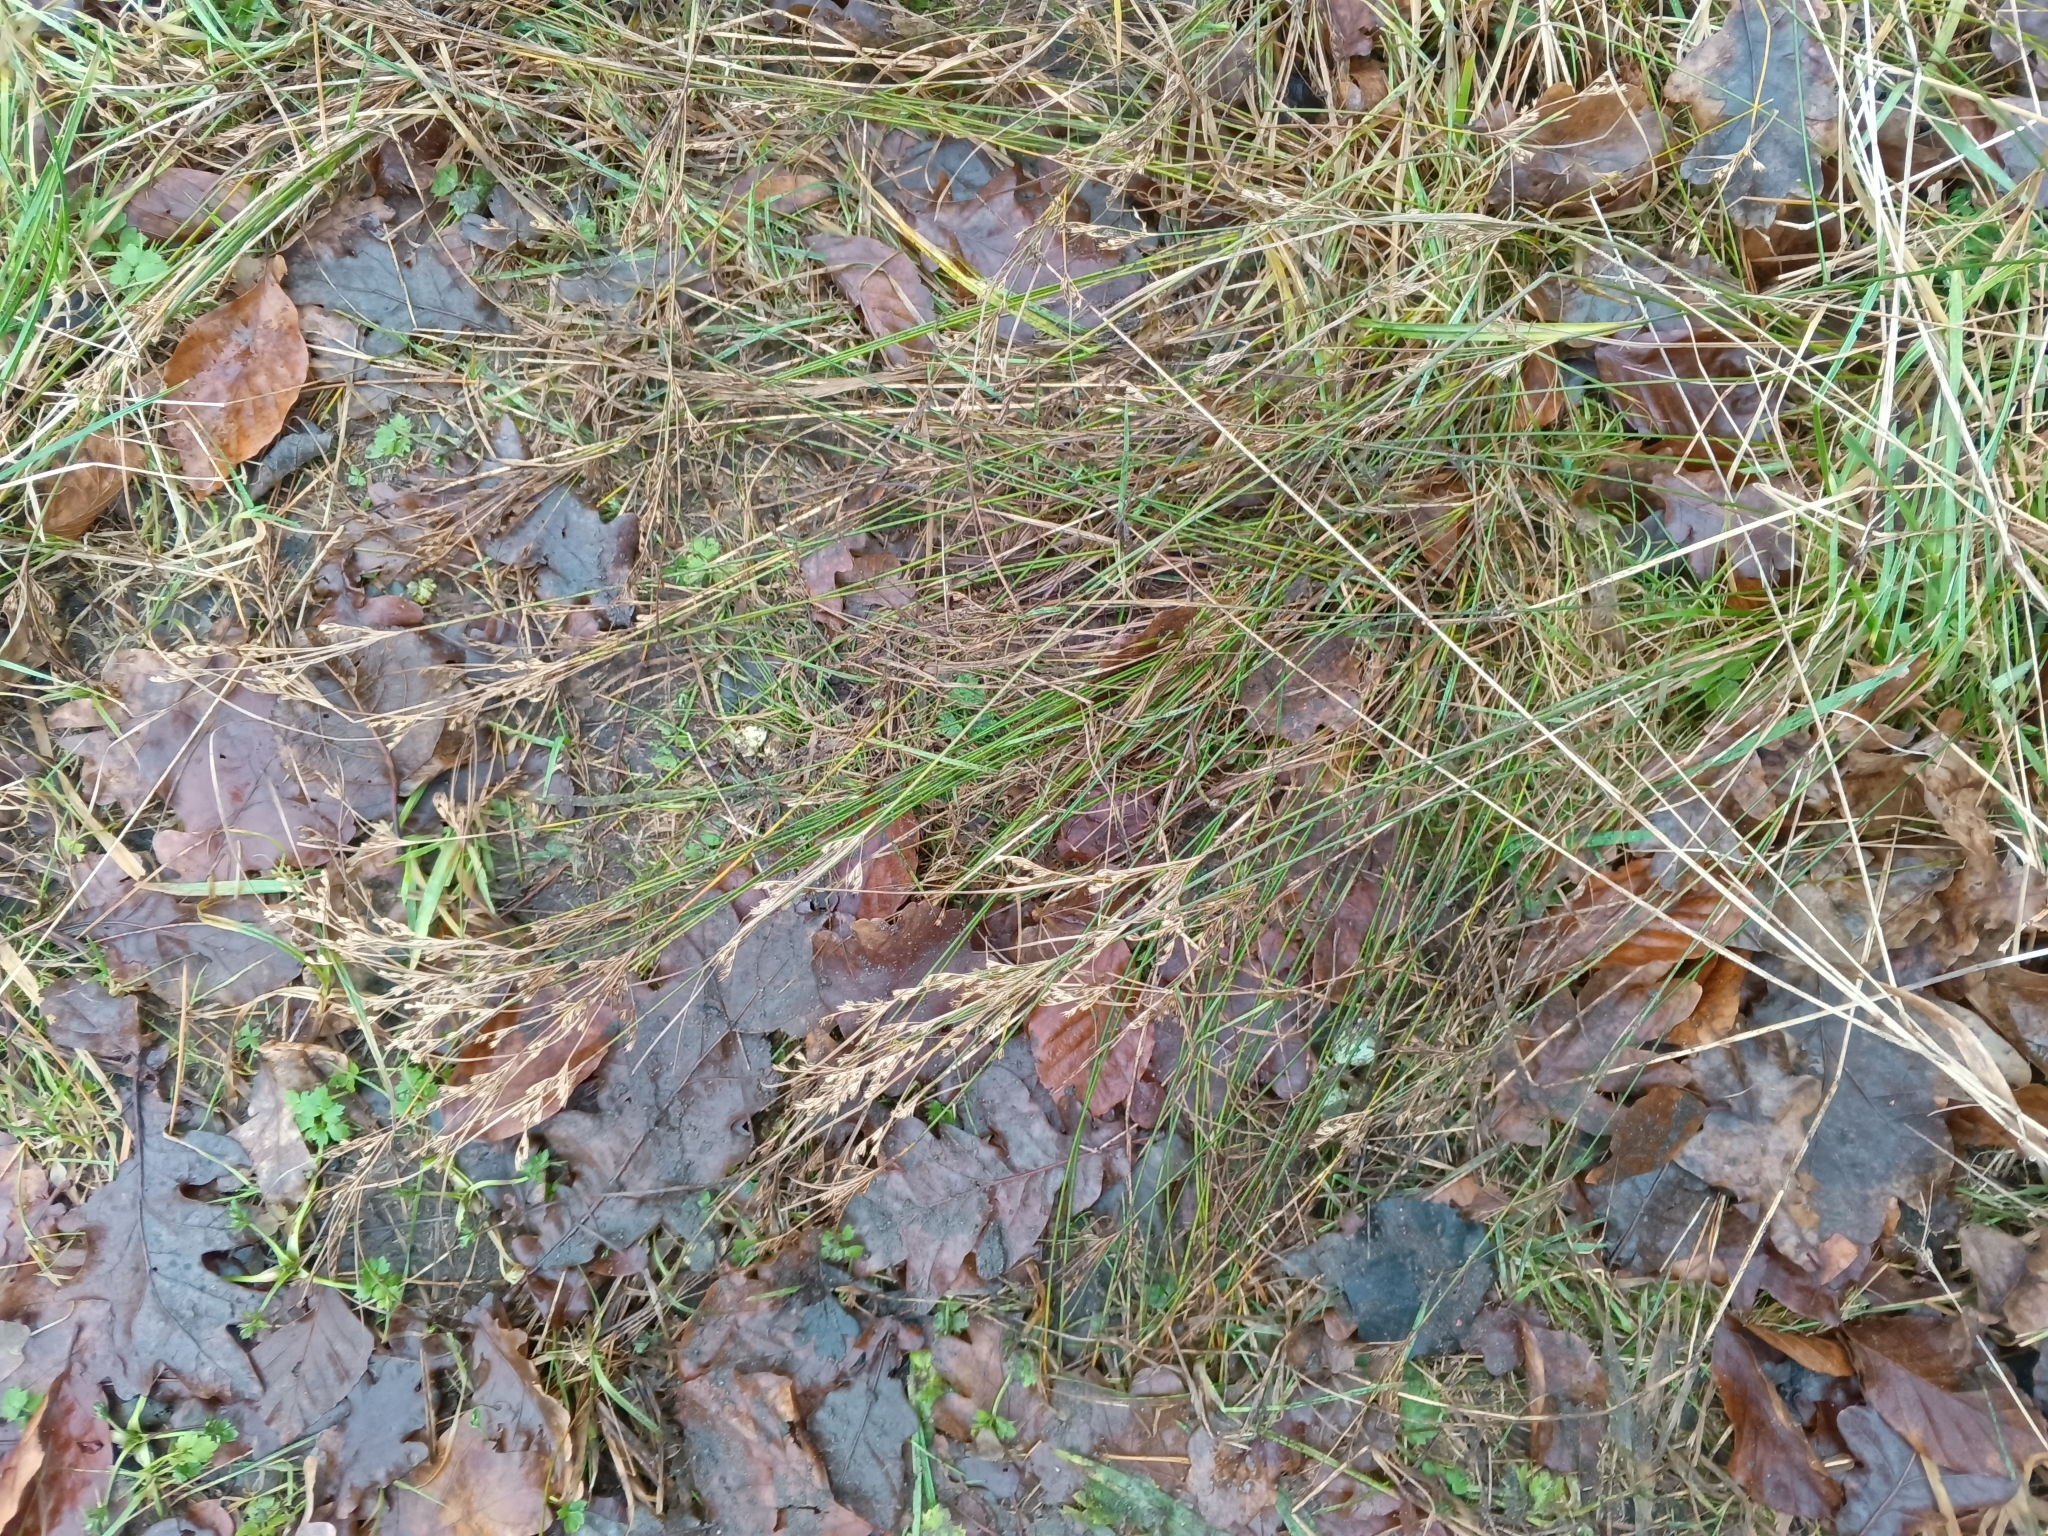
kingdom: Plantae
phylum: Tracheophyta
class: Liliopsida
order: Poales
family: Juncaceae
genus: Juncus
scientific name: Juncus tenuis
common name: Slender rush
